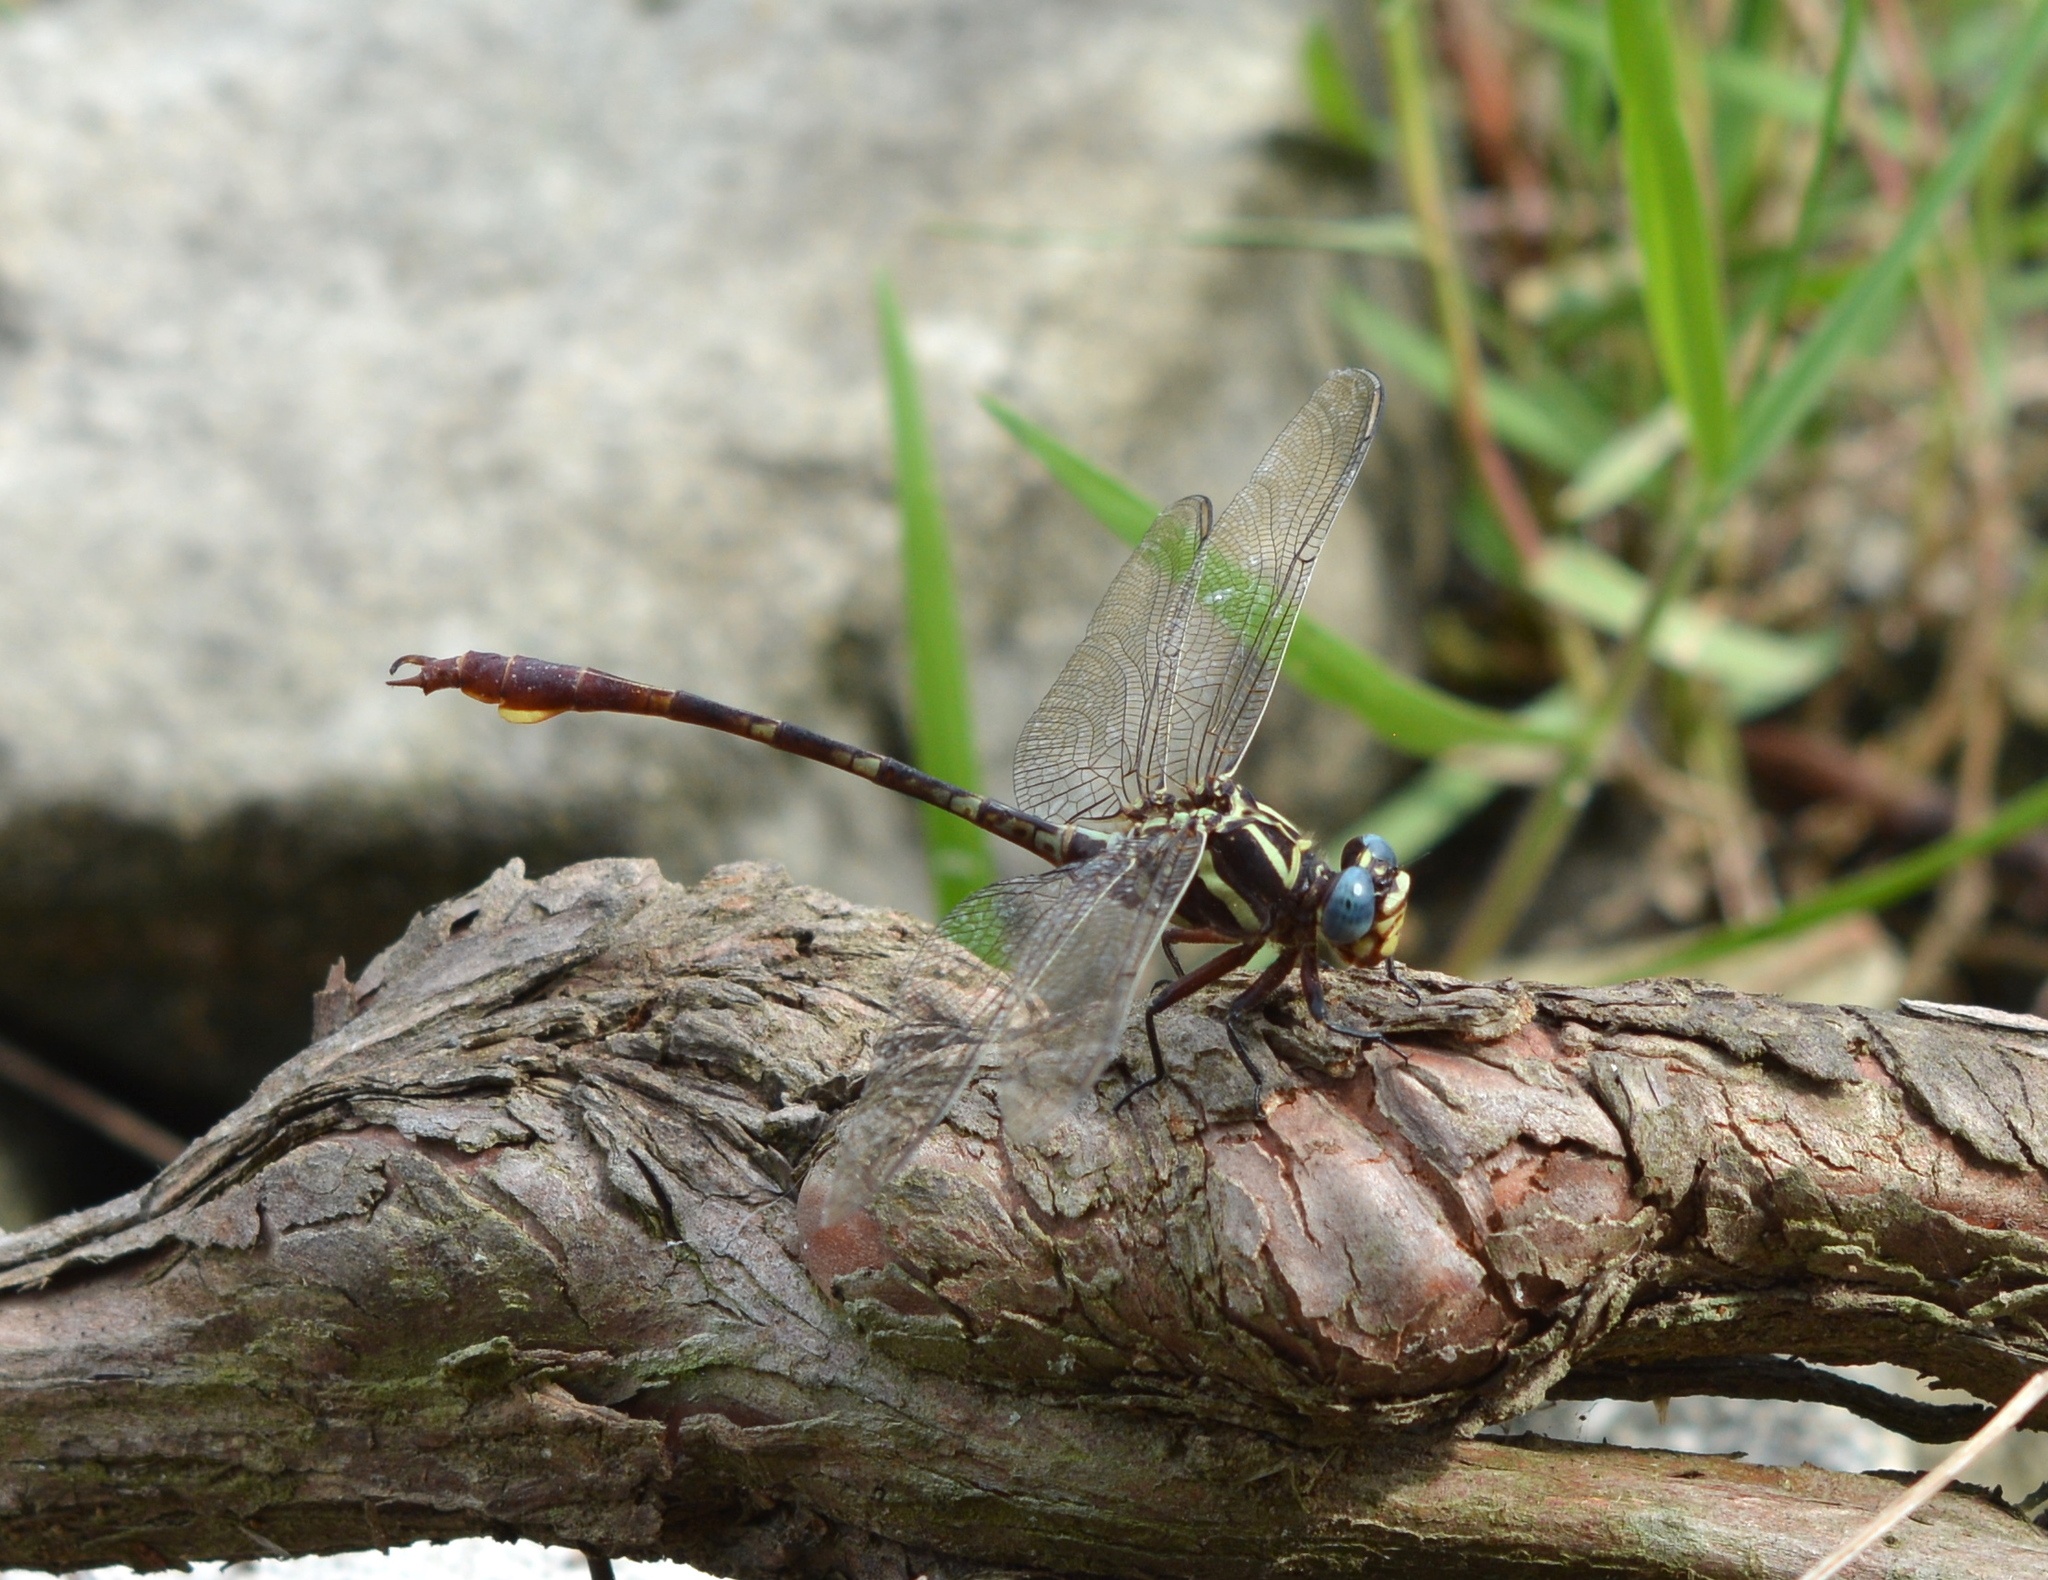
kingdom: Animalia
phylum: Arthropoda
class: Insecta
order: Odonata
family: Gomphidae
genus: Aphylla
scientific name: Aphylla williamsoni
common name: Two-striped forceptail
